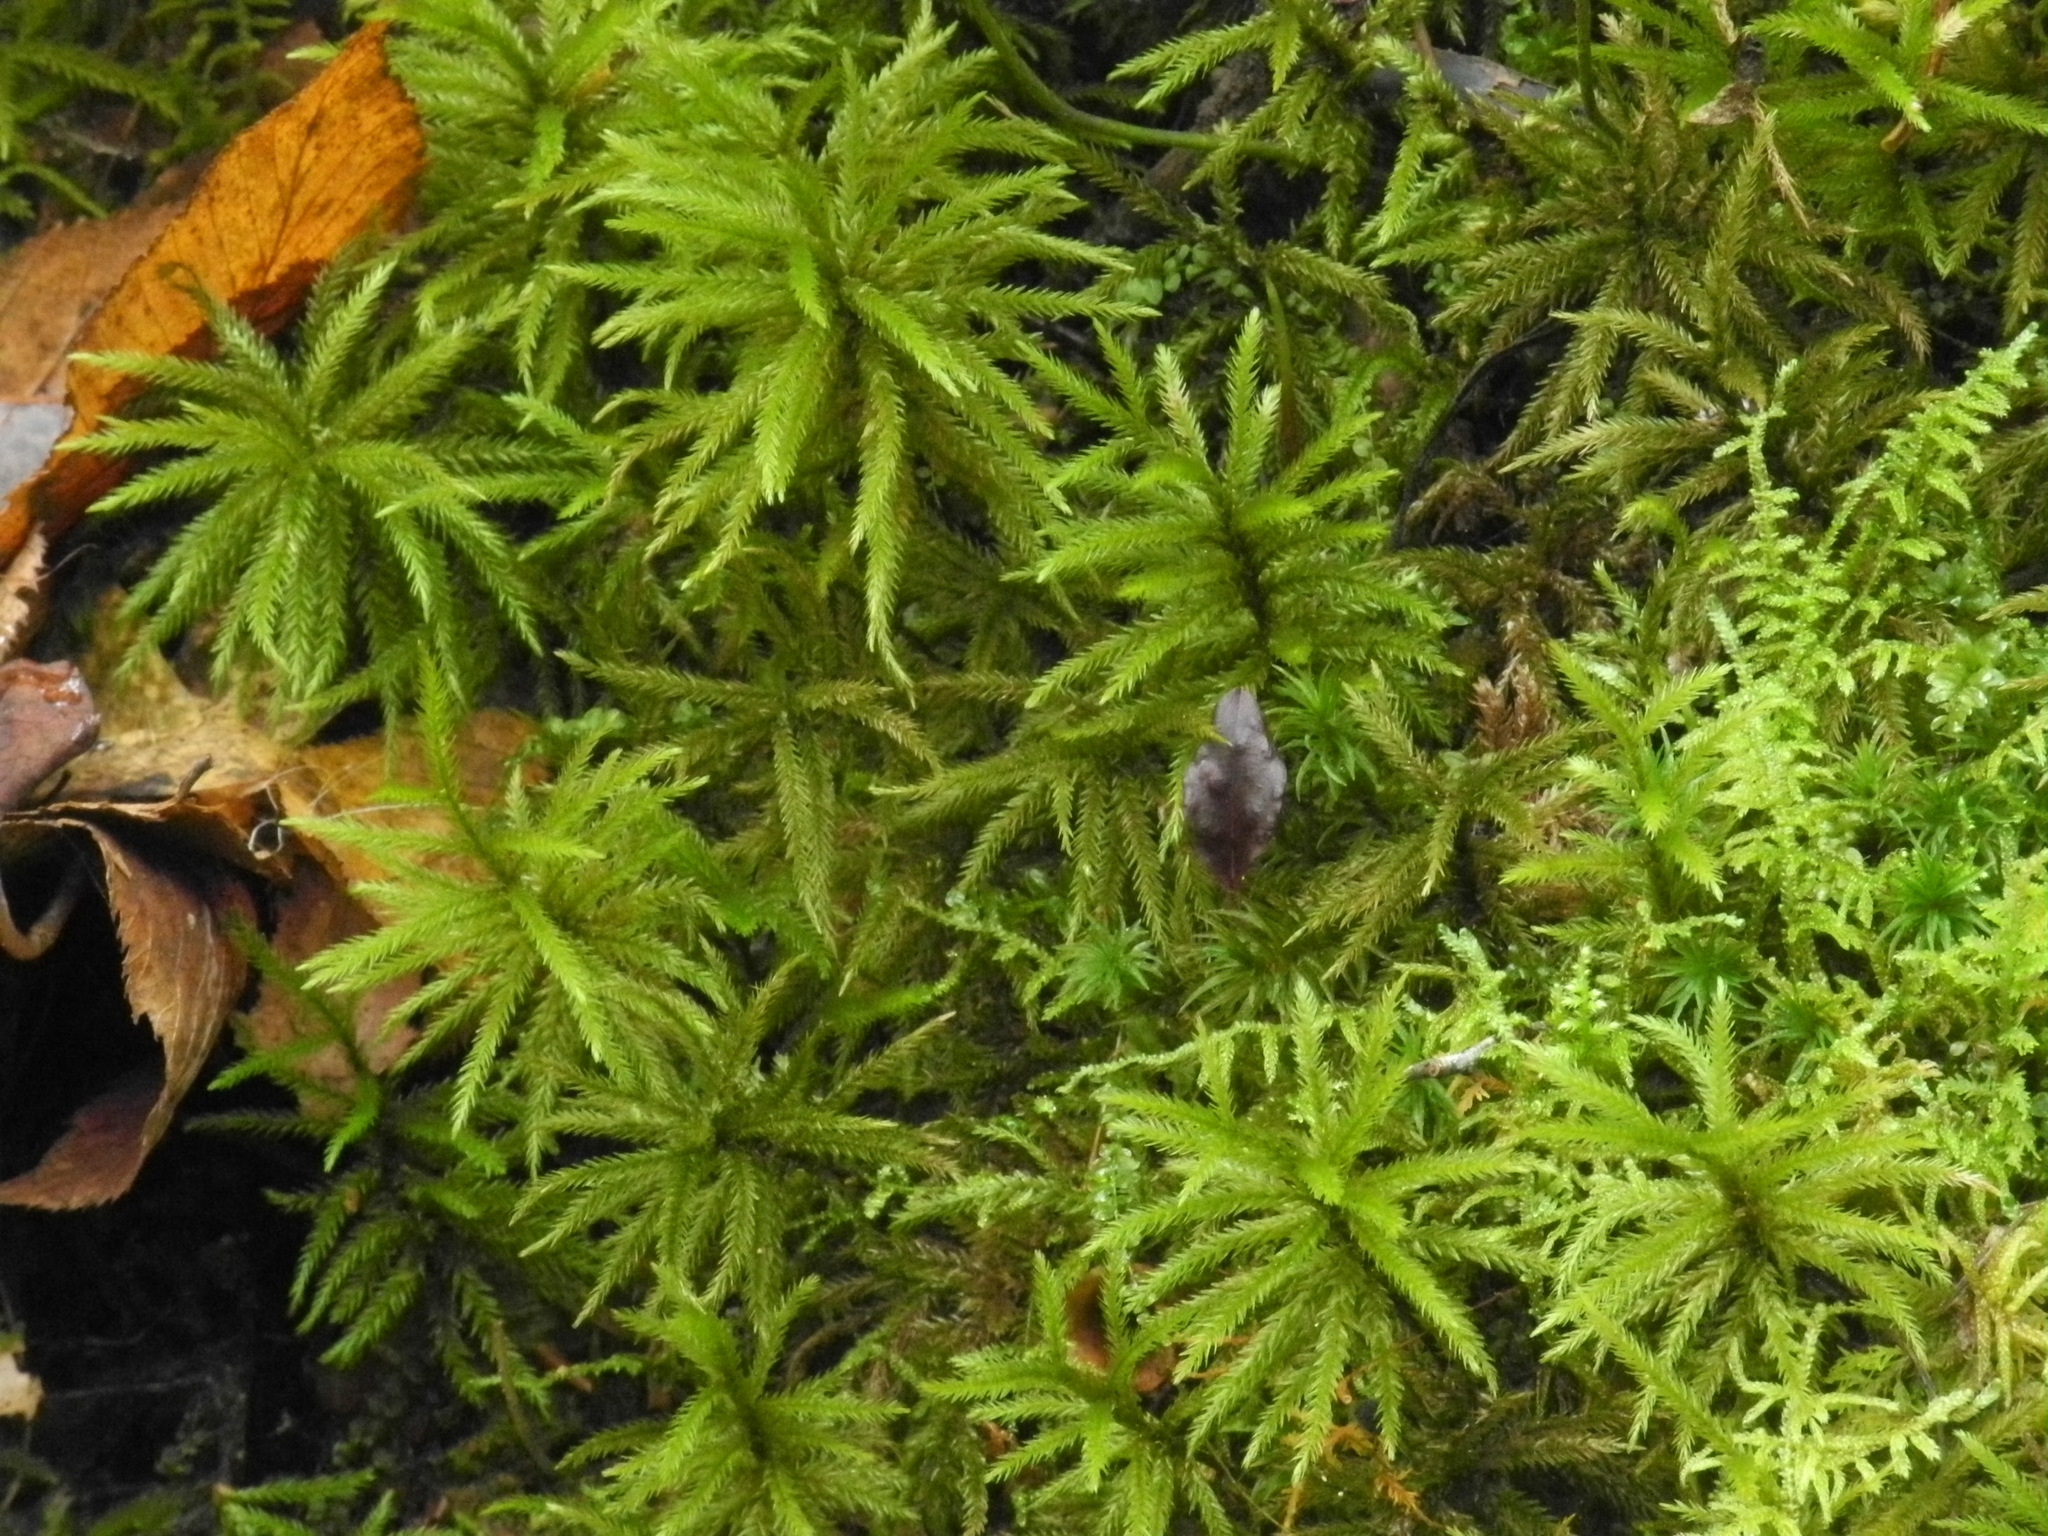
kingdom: Plantae
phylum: Bryophyta
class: Bryopsida
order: Hypnales
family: Climaciaceae
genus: Climacium
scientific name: Climacium americanum
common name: American tree moss
